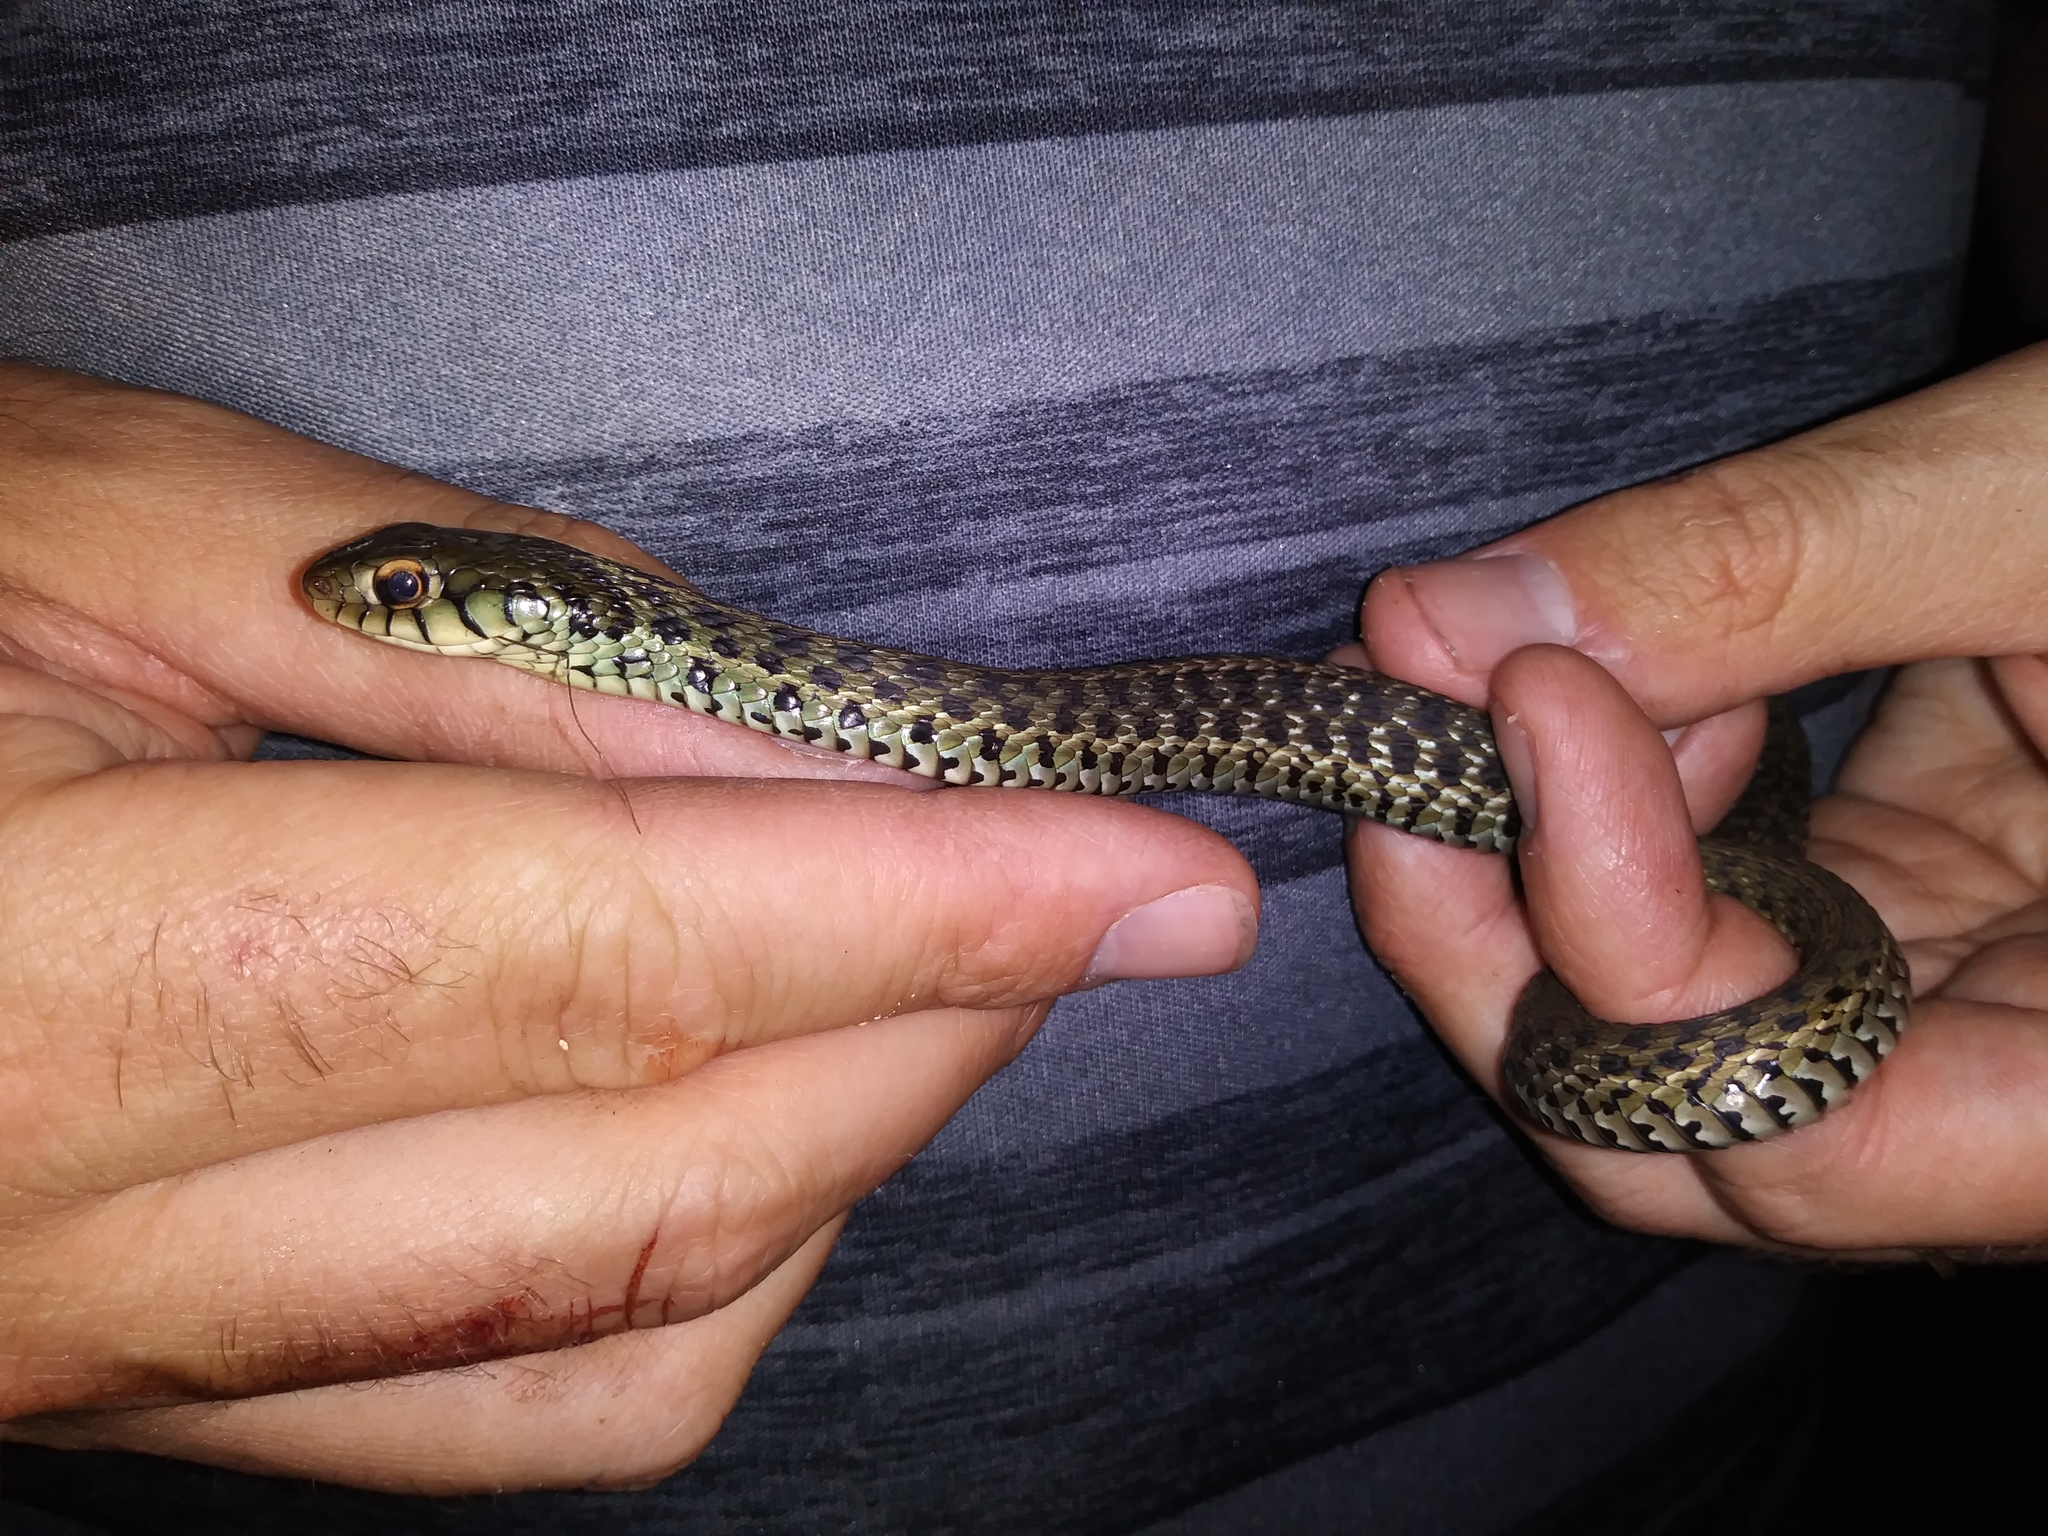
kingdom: Animalia
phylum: Chordata
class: Squamata
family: Colubridae
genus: Thamnophis
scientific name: Thamnophis sirtalis
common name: Common garter snake
